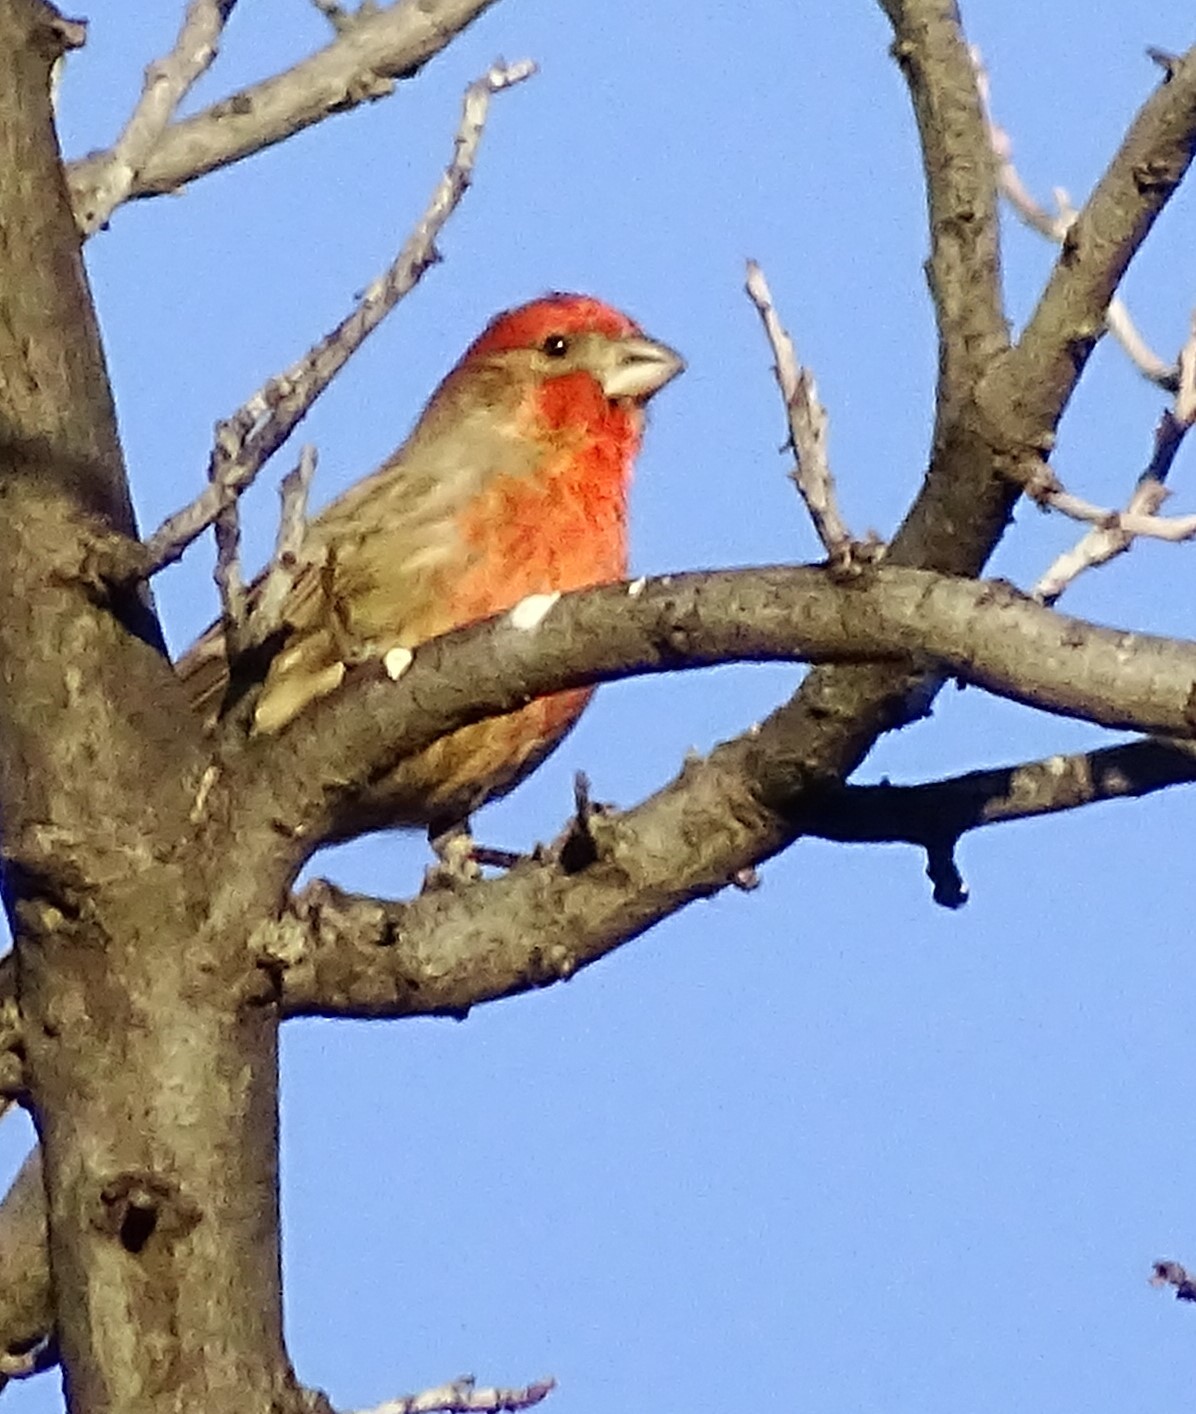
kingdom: Animalia
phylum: Chordata
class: Aves
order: Passeriformes
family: Fringillidae
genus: Haemorhous
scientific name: Haemorhous mexicanus
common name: House finch
